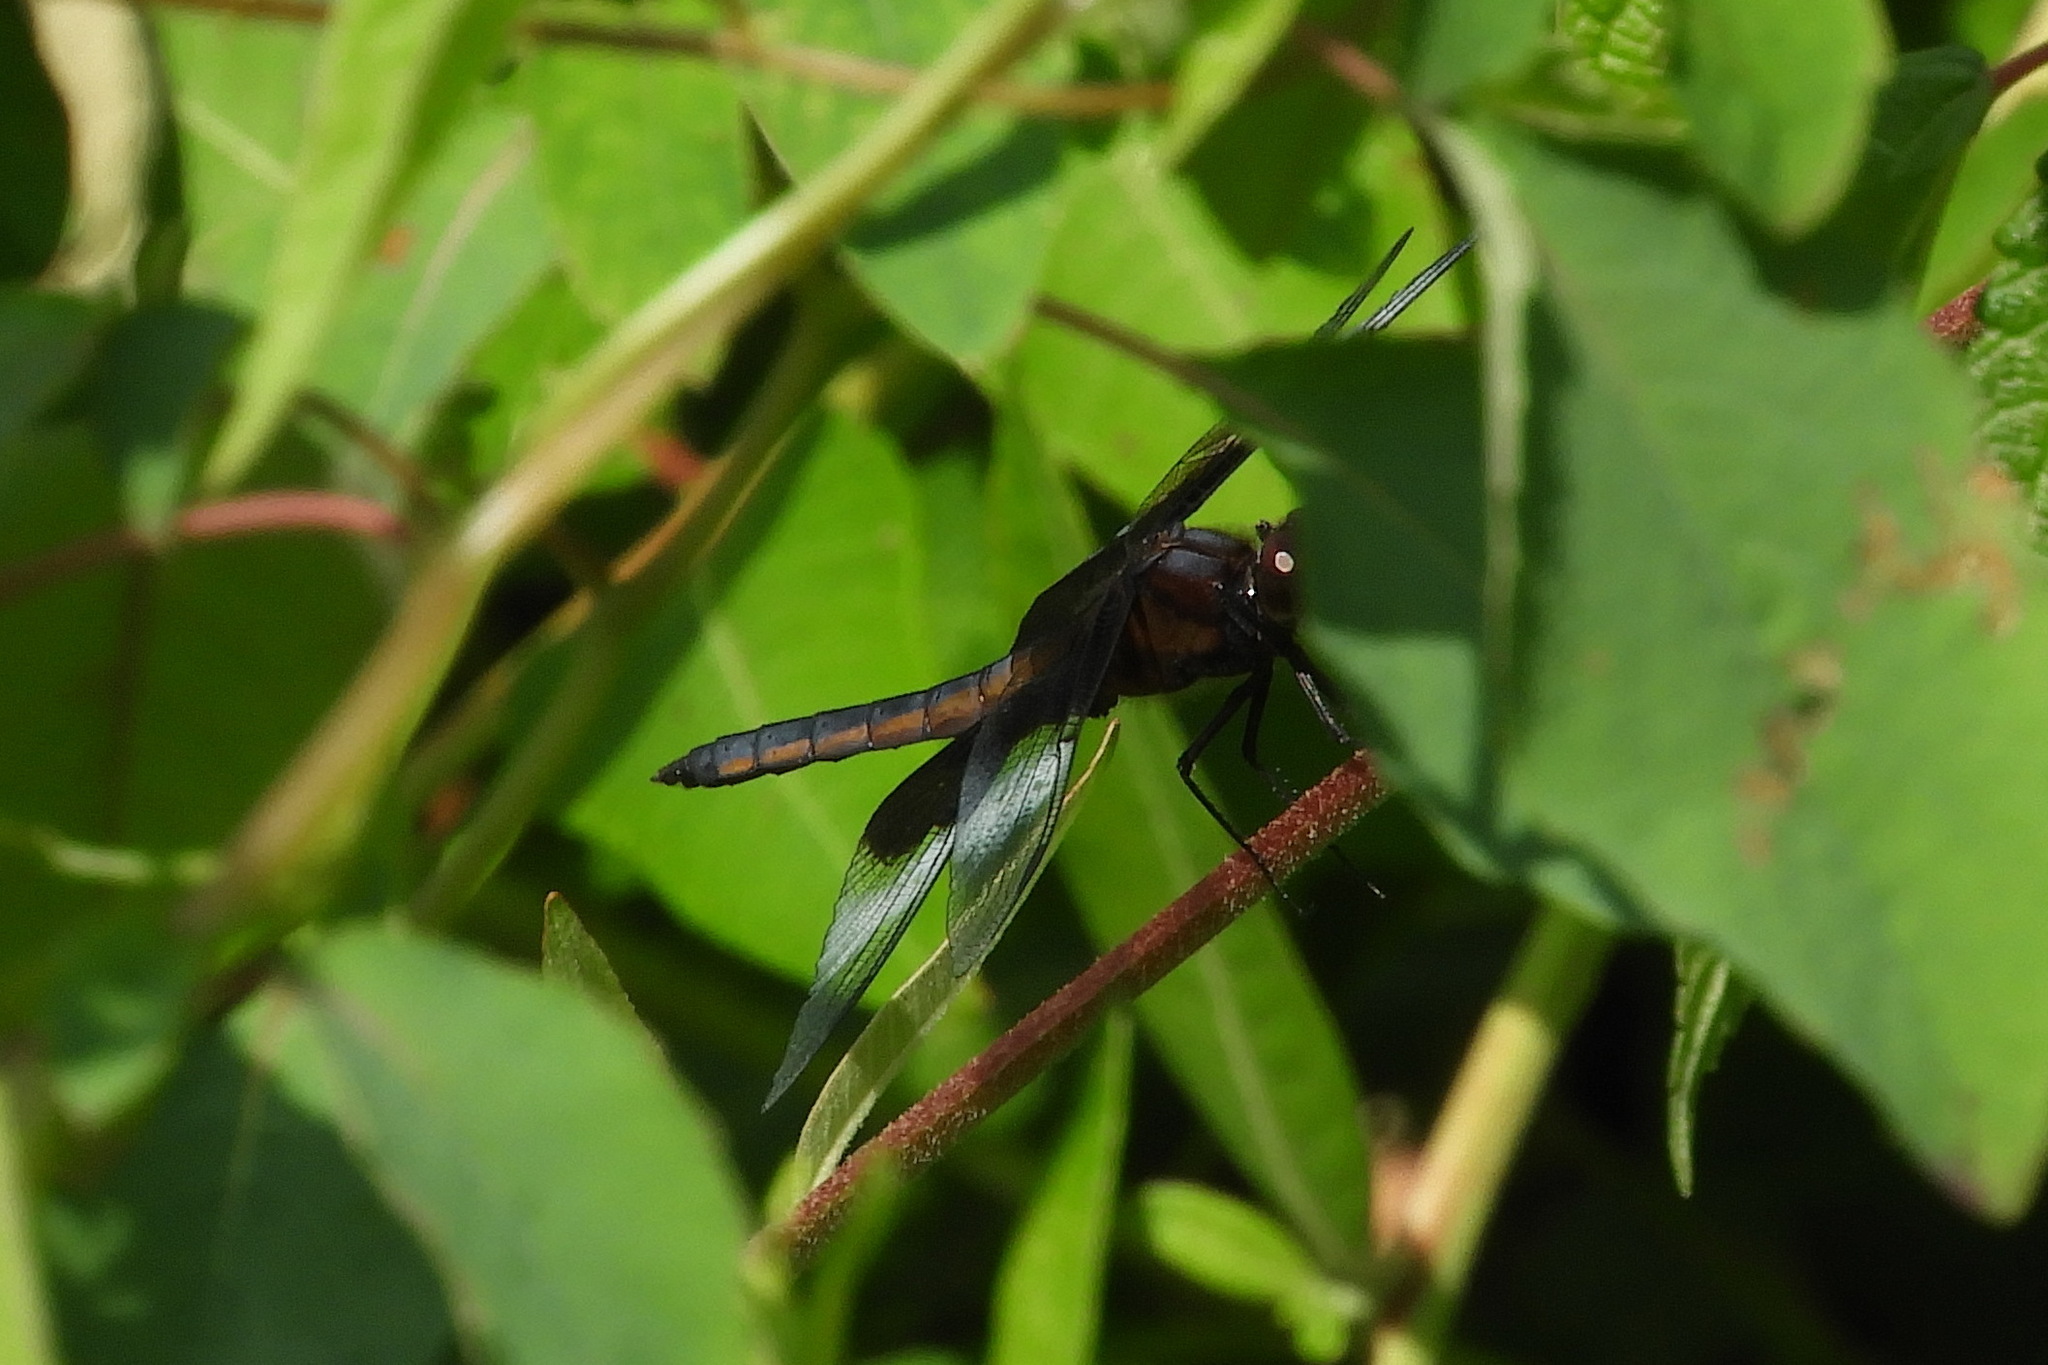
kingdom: Animalia
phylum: Arthropoda
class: Insecta
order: Odonata
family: Libellulidae
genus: Libellula
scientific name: Libellula luctuosa
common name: Widow skimmer
